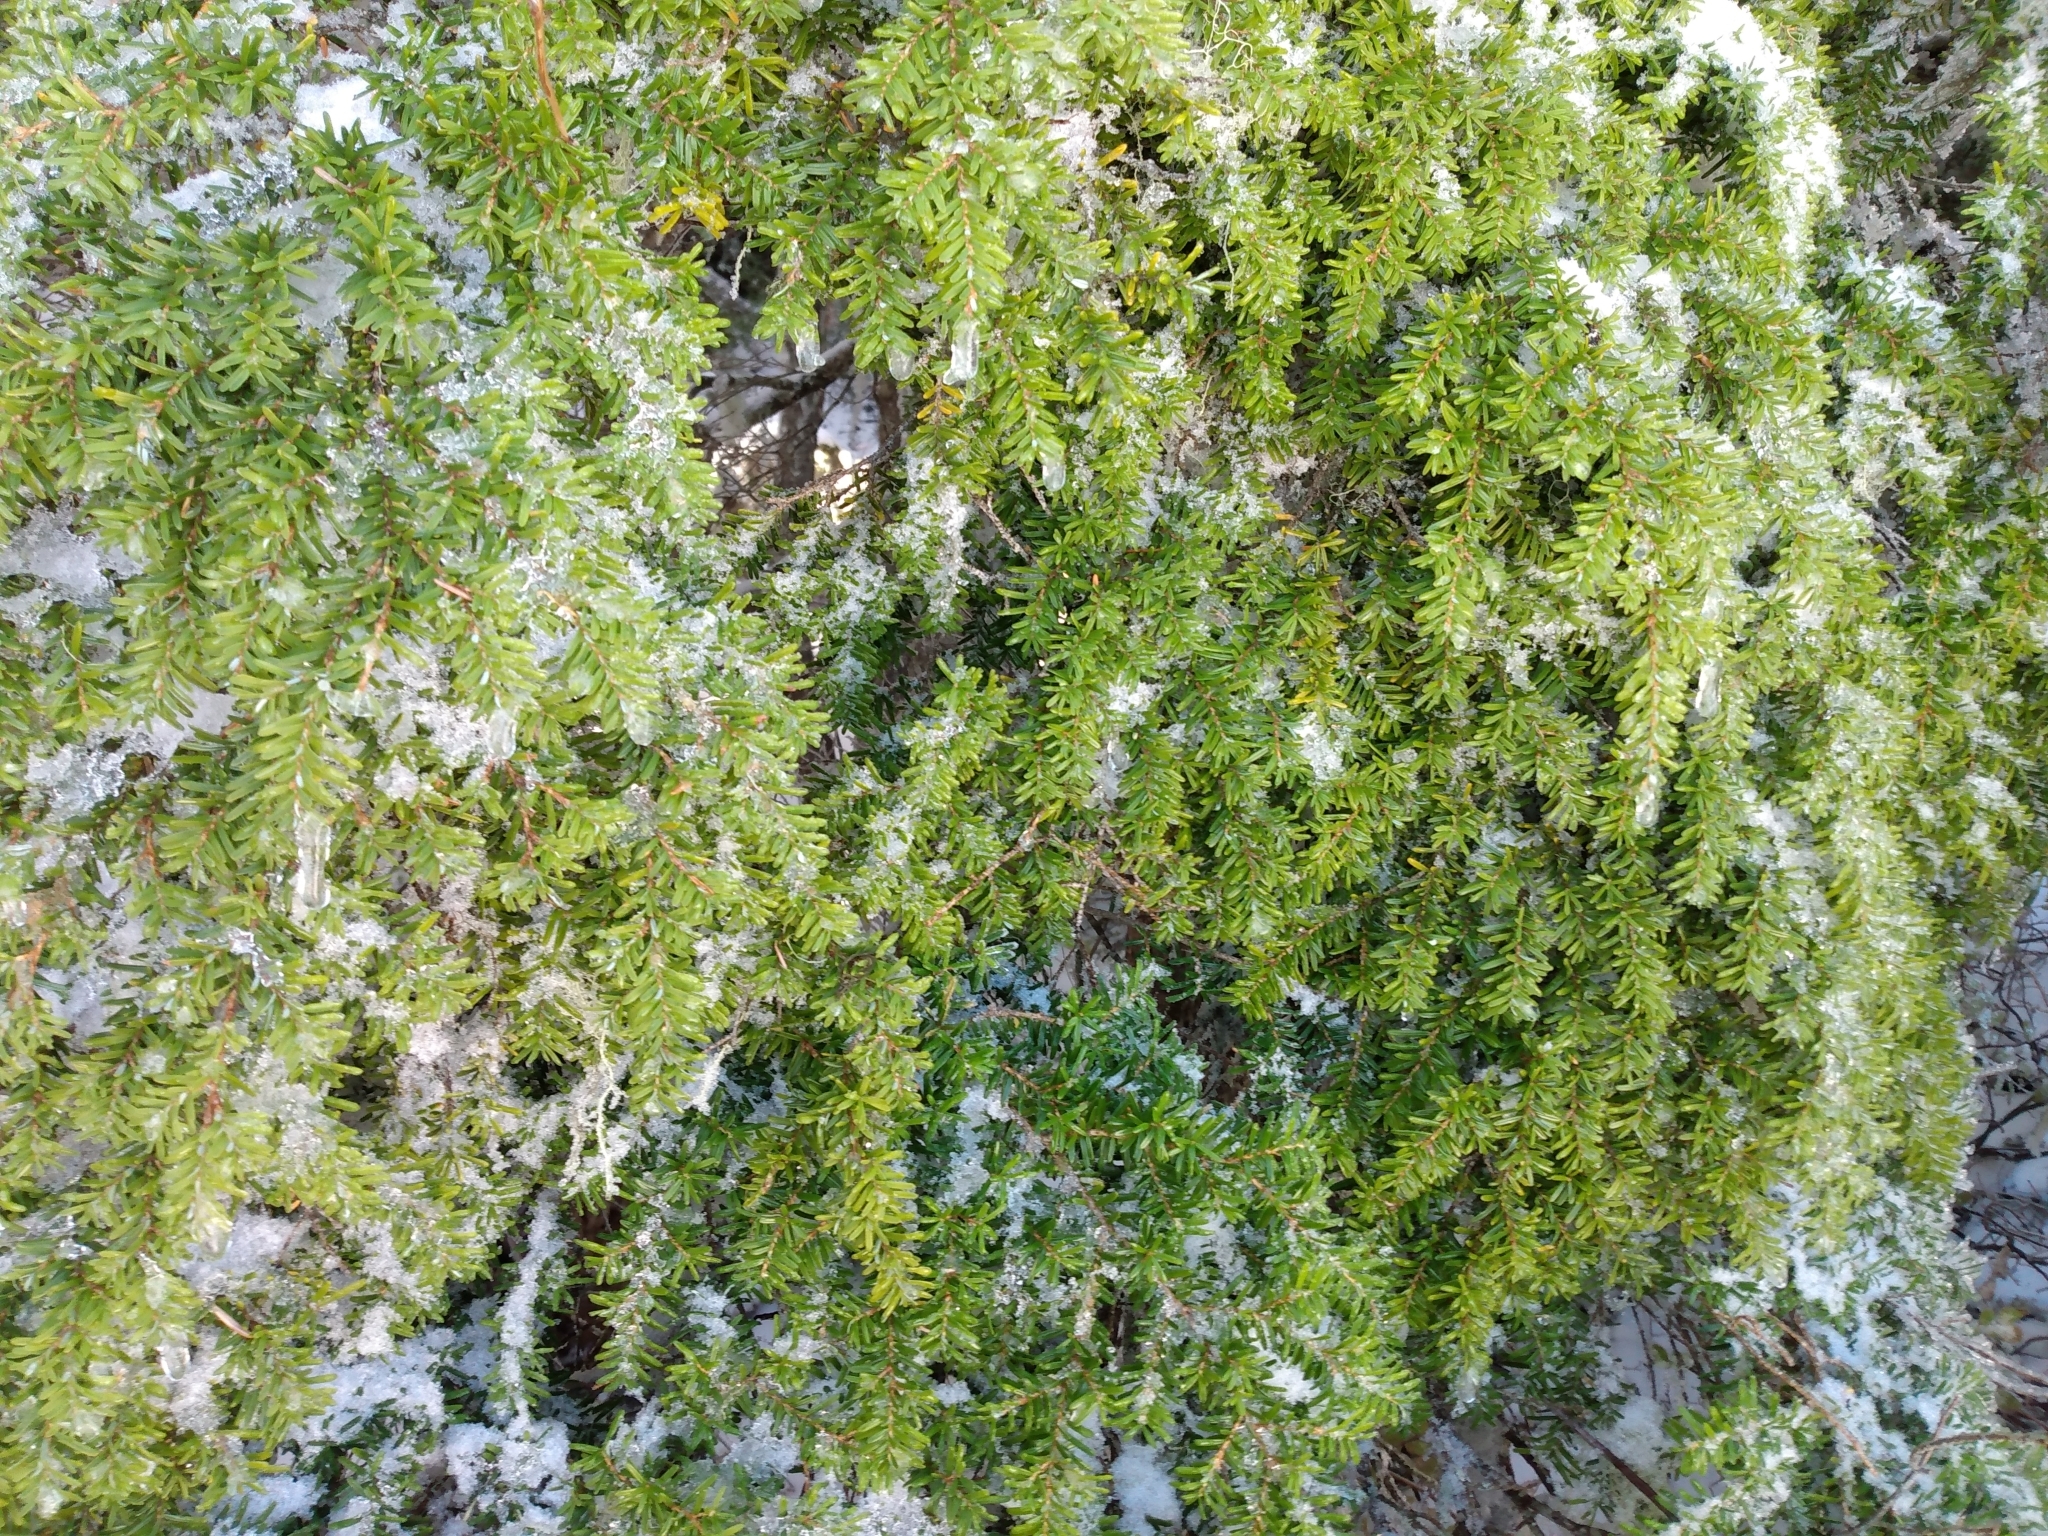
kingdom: Plantae
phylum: Tracheophyta
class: Pinopsida
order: Pinales
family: Pinaceae
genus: Tsuga
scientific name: Tsuga heterophylla
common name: Western hemlock
